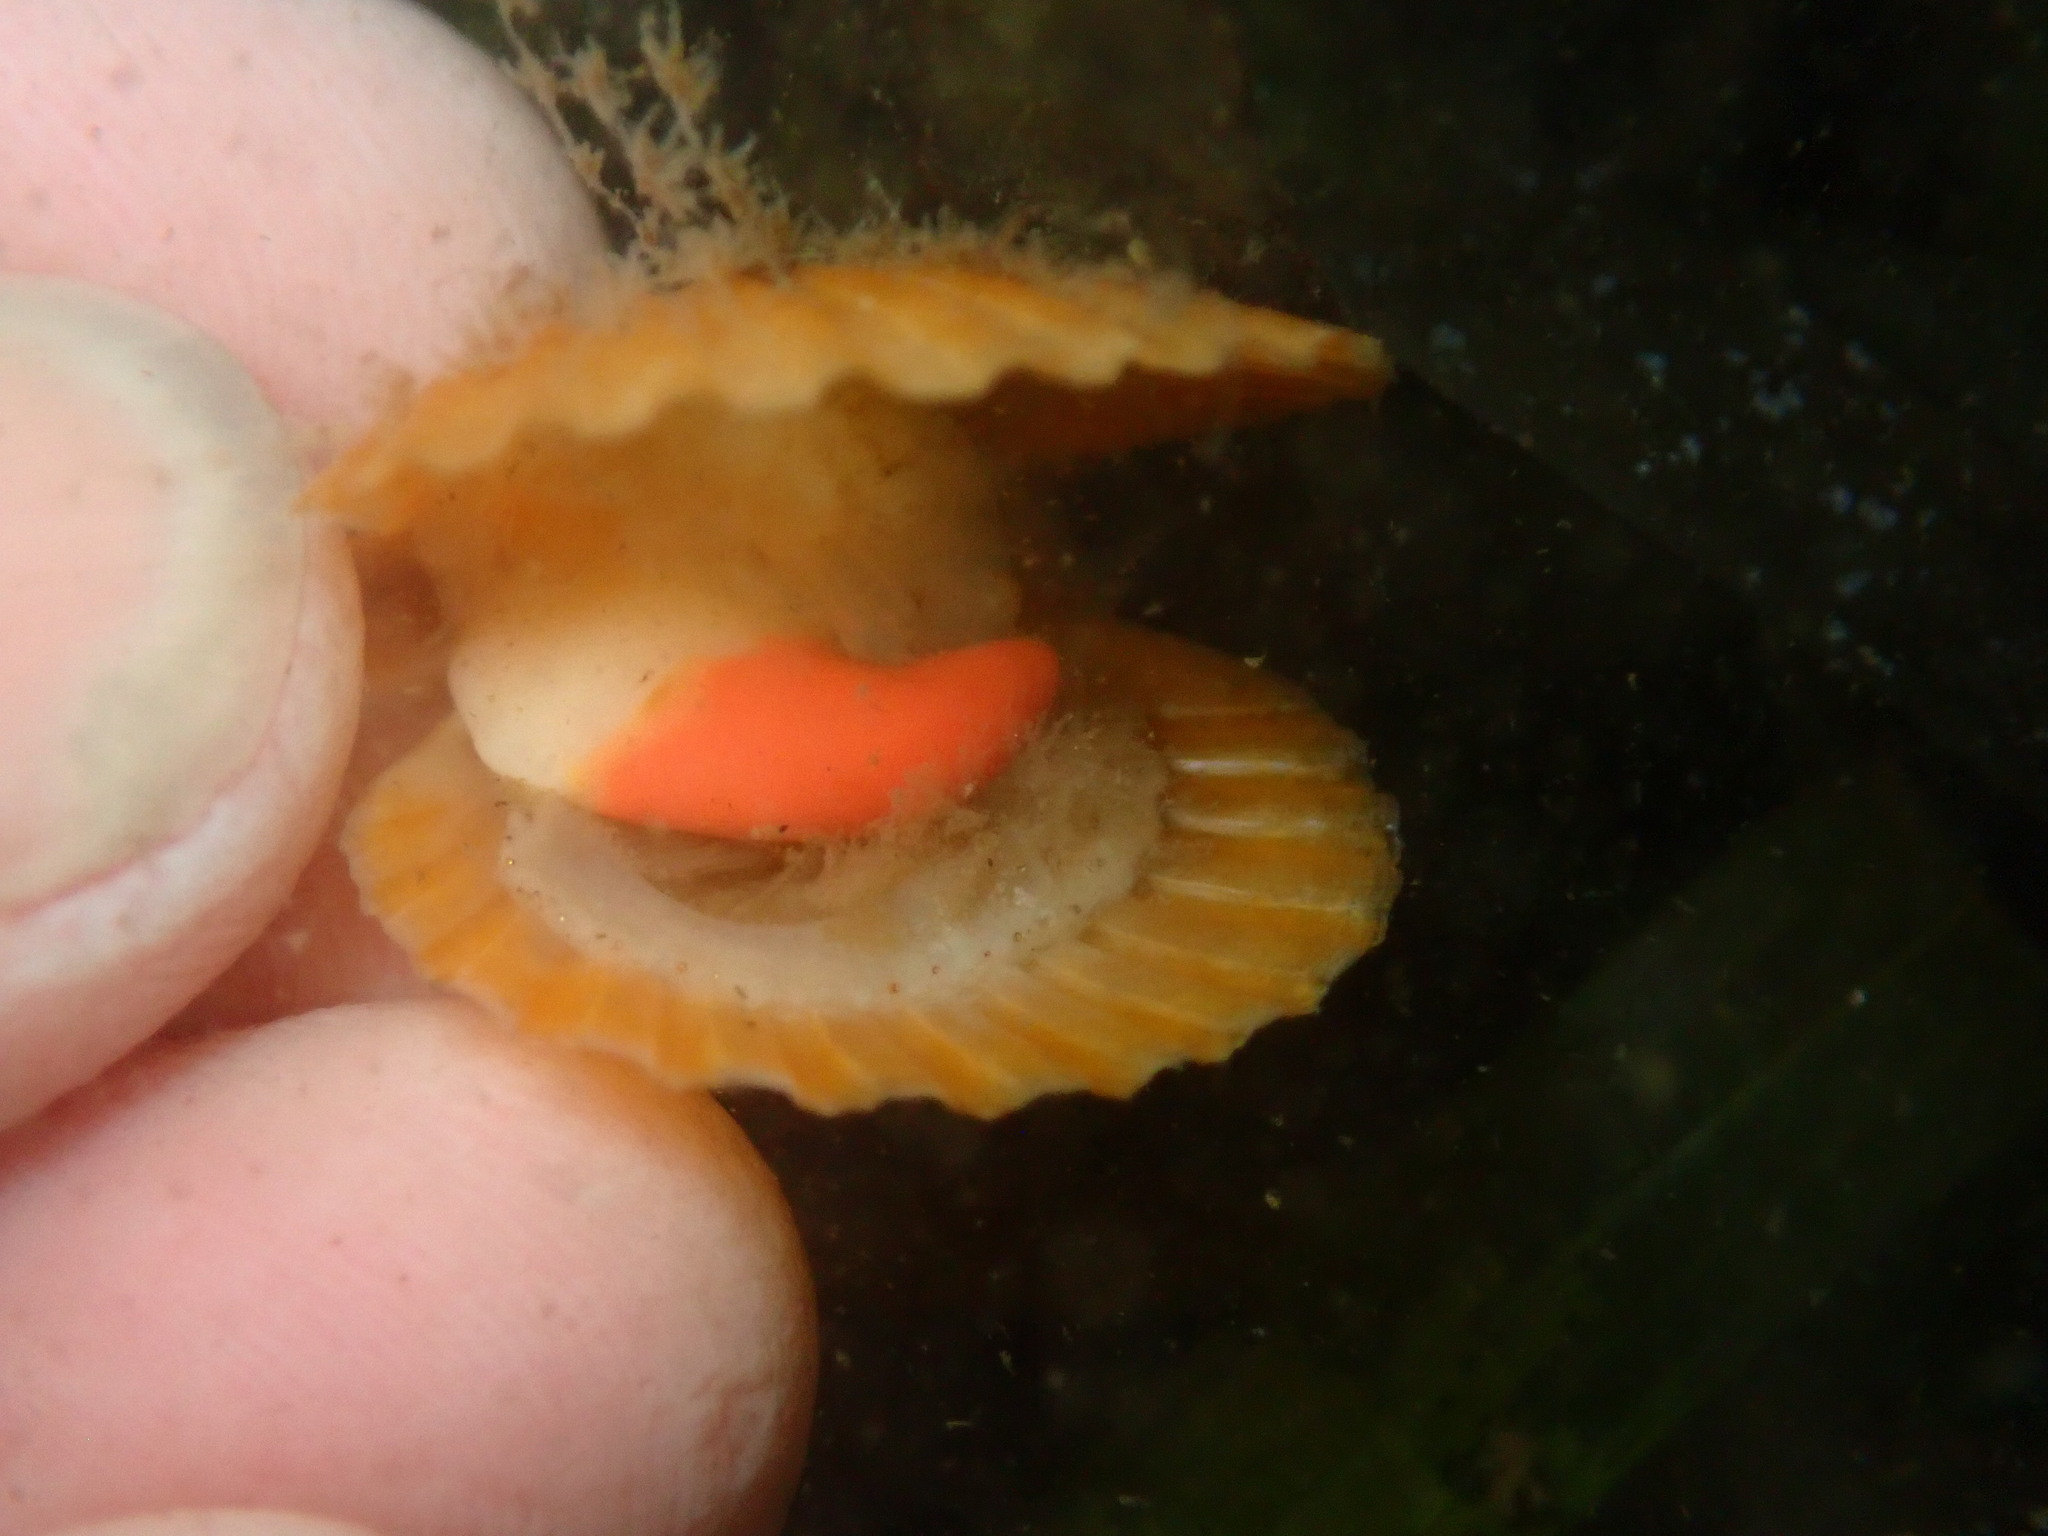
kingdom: Animalia
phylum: Mollusca
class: Bivalvia
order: Pectinida
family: Pectinidae
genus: Leopecten
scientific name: Leopecten diegensis
